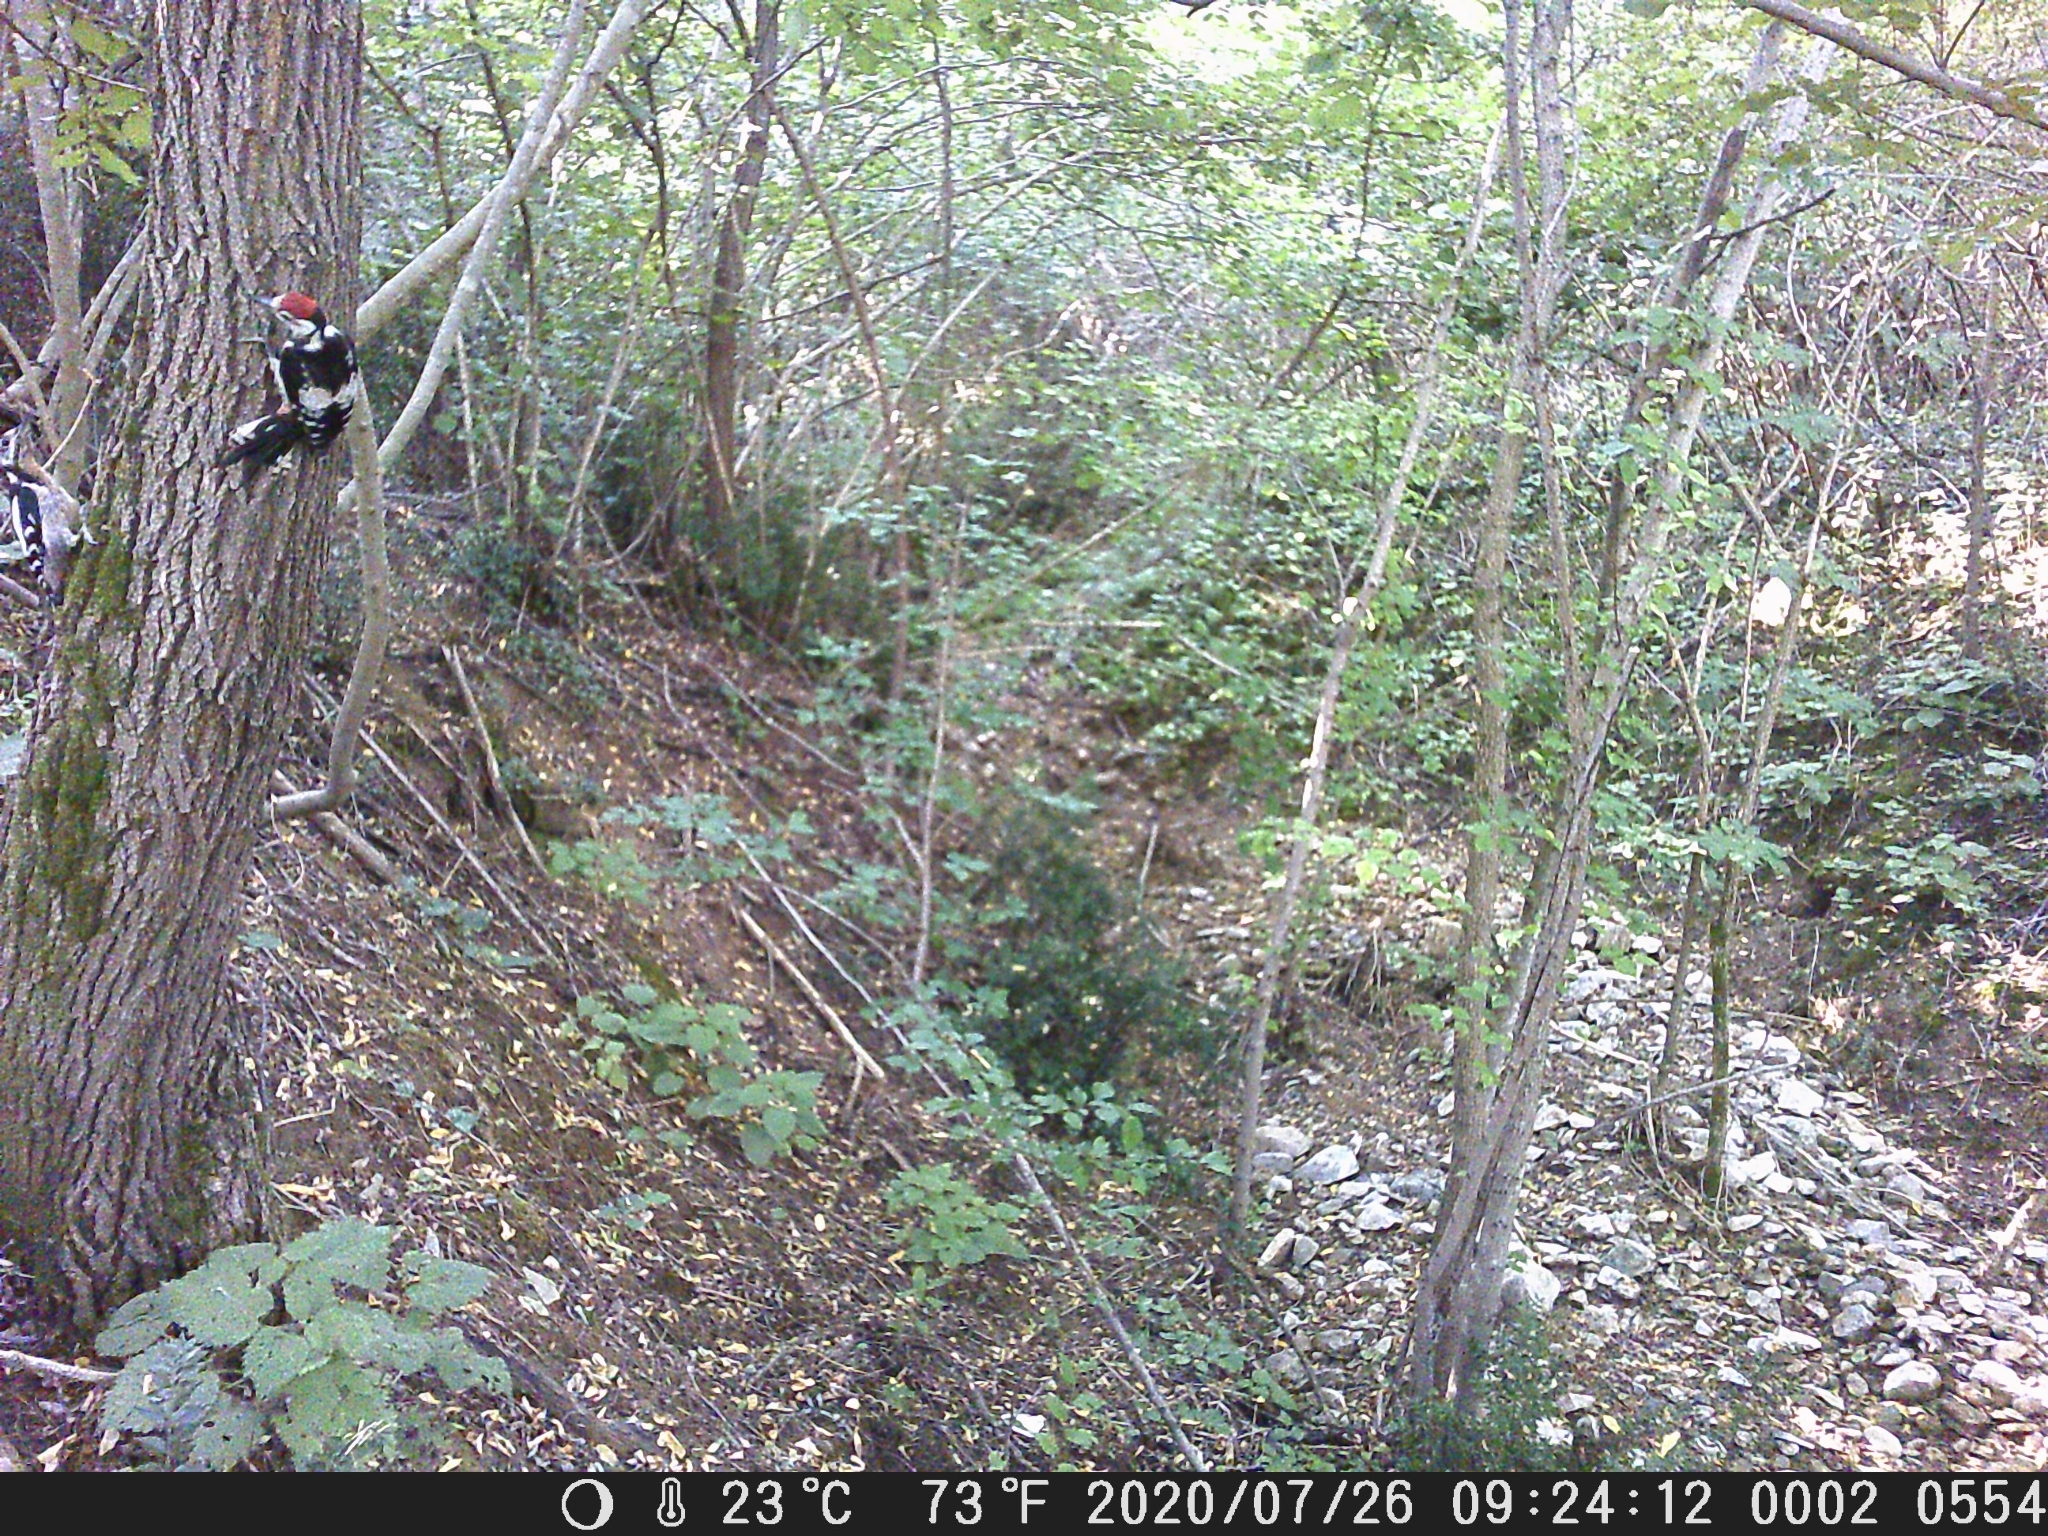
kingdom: Animalia
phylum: Chordata
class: Aves
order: Piciformes
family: Picidae
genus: Dendrocopos
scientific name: Dendrocopos major
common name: Great spotted woodpecker
